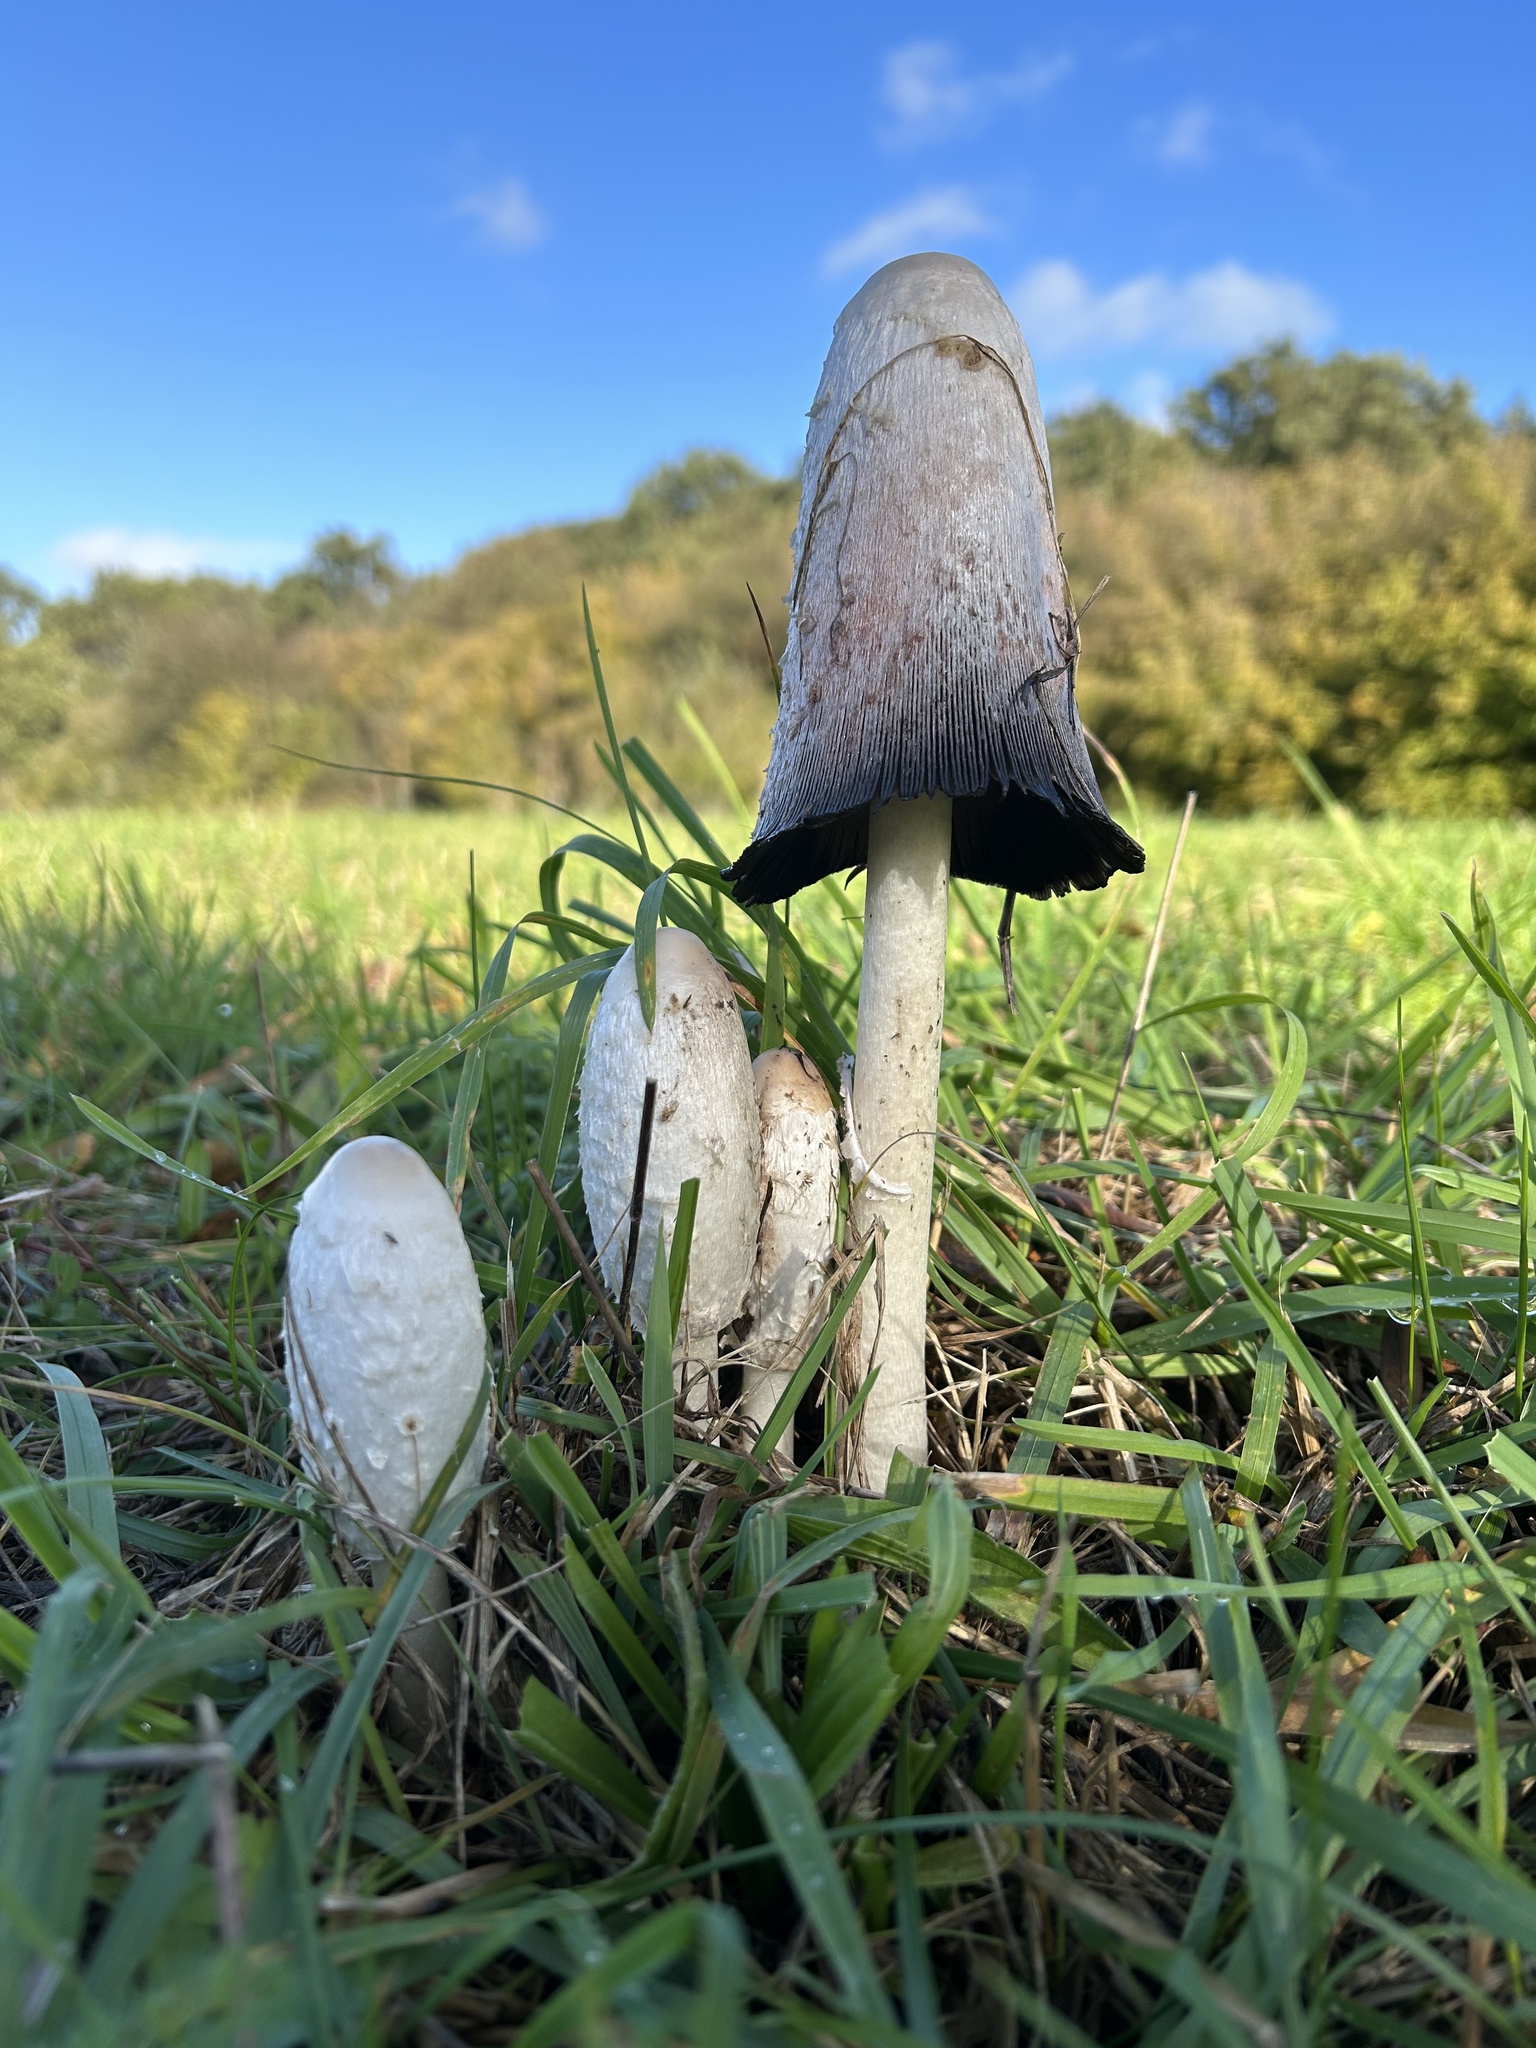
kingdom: Fungi
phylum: Basidiomycota
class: Agaricomycetes
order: Agaricales
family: Agaricaceae
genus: Coprinus
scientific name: Coprinus comatus
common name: Lawyer's wig
